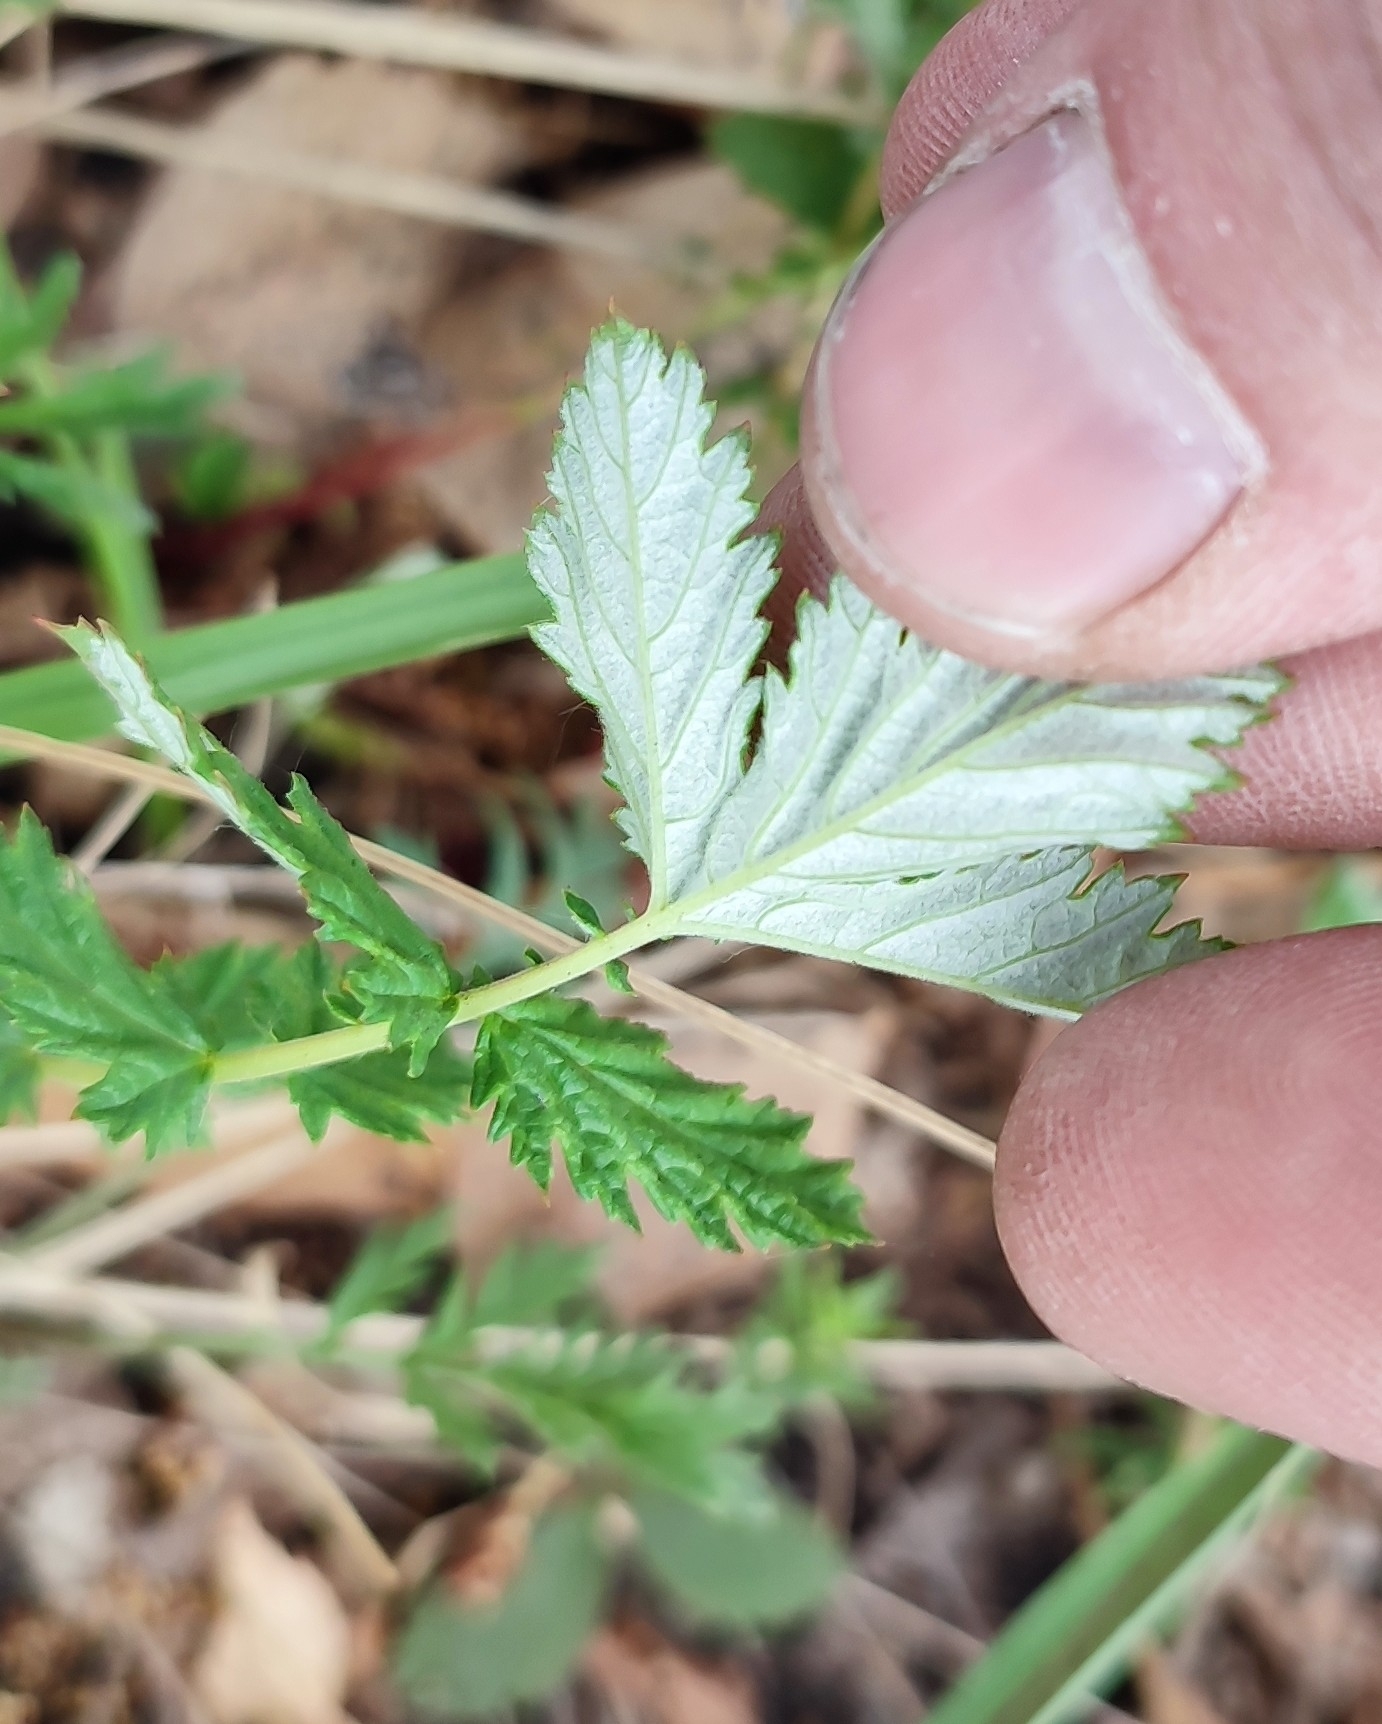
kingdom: Plantae
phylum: Tracheophyta
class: Magnoliopsida
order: Rosales
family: Rosaceae
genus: Filipendula
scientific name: Filipendula ulmaria
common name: Meadowsweet
